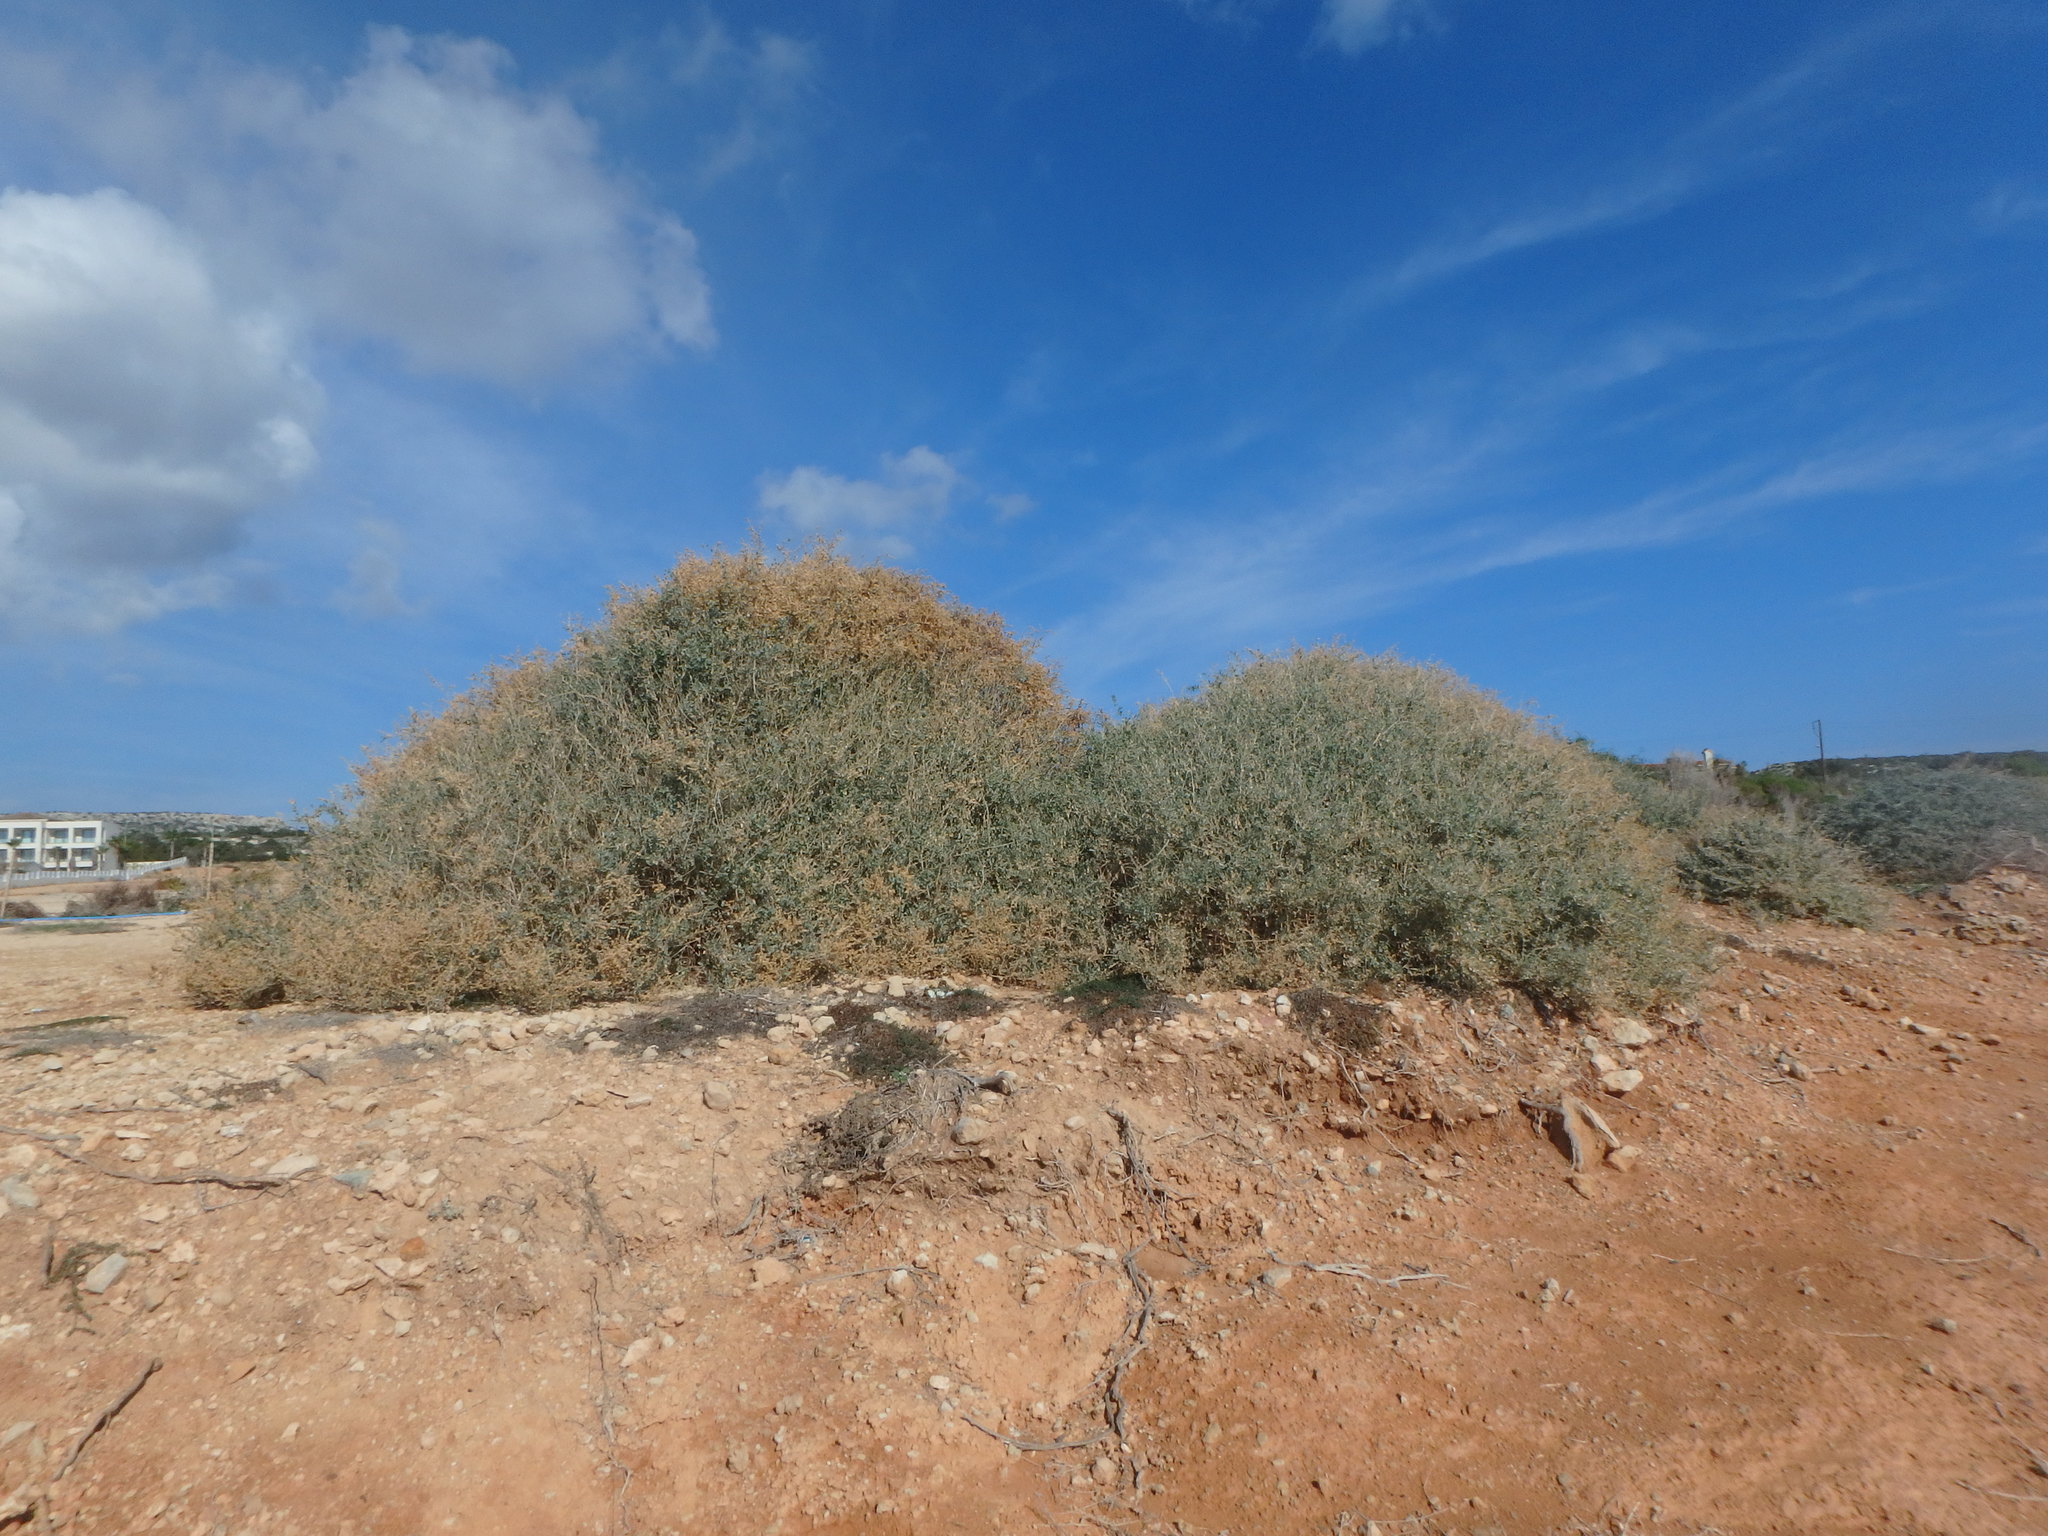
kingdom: Plantae
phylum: Tracheophyta
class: Magnoliopsida
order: Caryophyllales
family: Amaranthaceae
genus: Atriplex
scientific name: Atriplex halimus
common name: Shrubby orache
